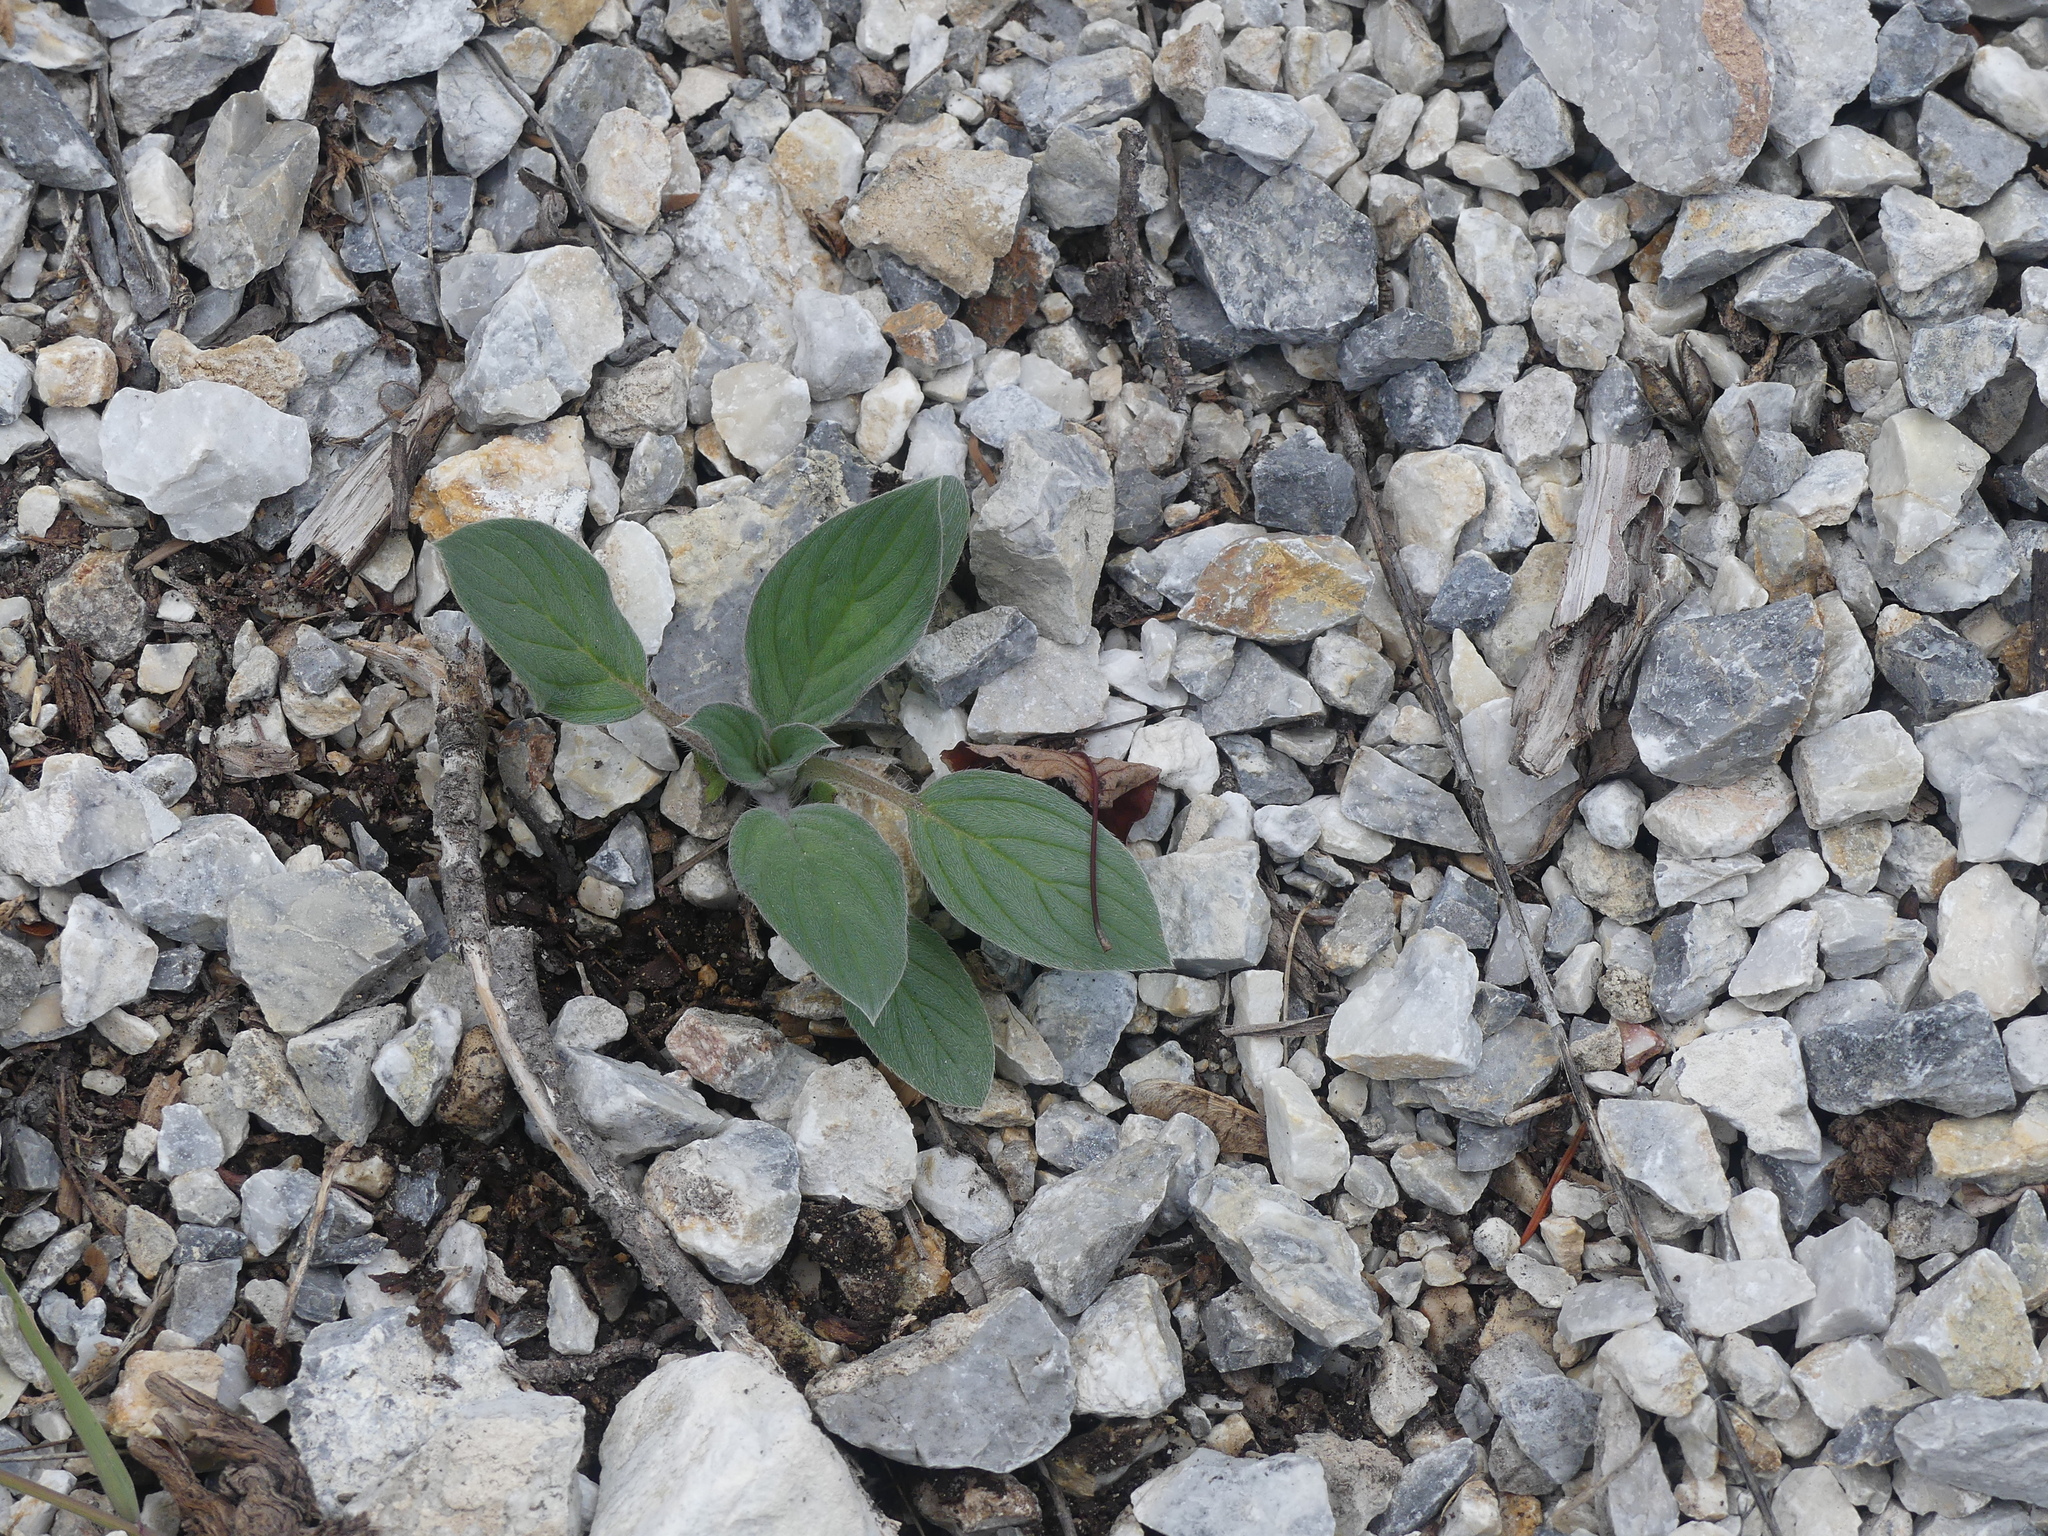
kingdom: Plantae
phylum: Tracheophyta
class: Magnoliopsida
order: Boraginales
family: Hydrophyllaceae
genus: Phacelia
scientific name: Phacelia hastata
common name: Silver-leaved phacelia
